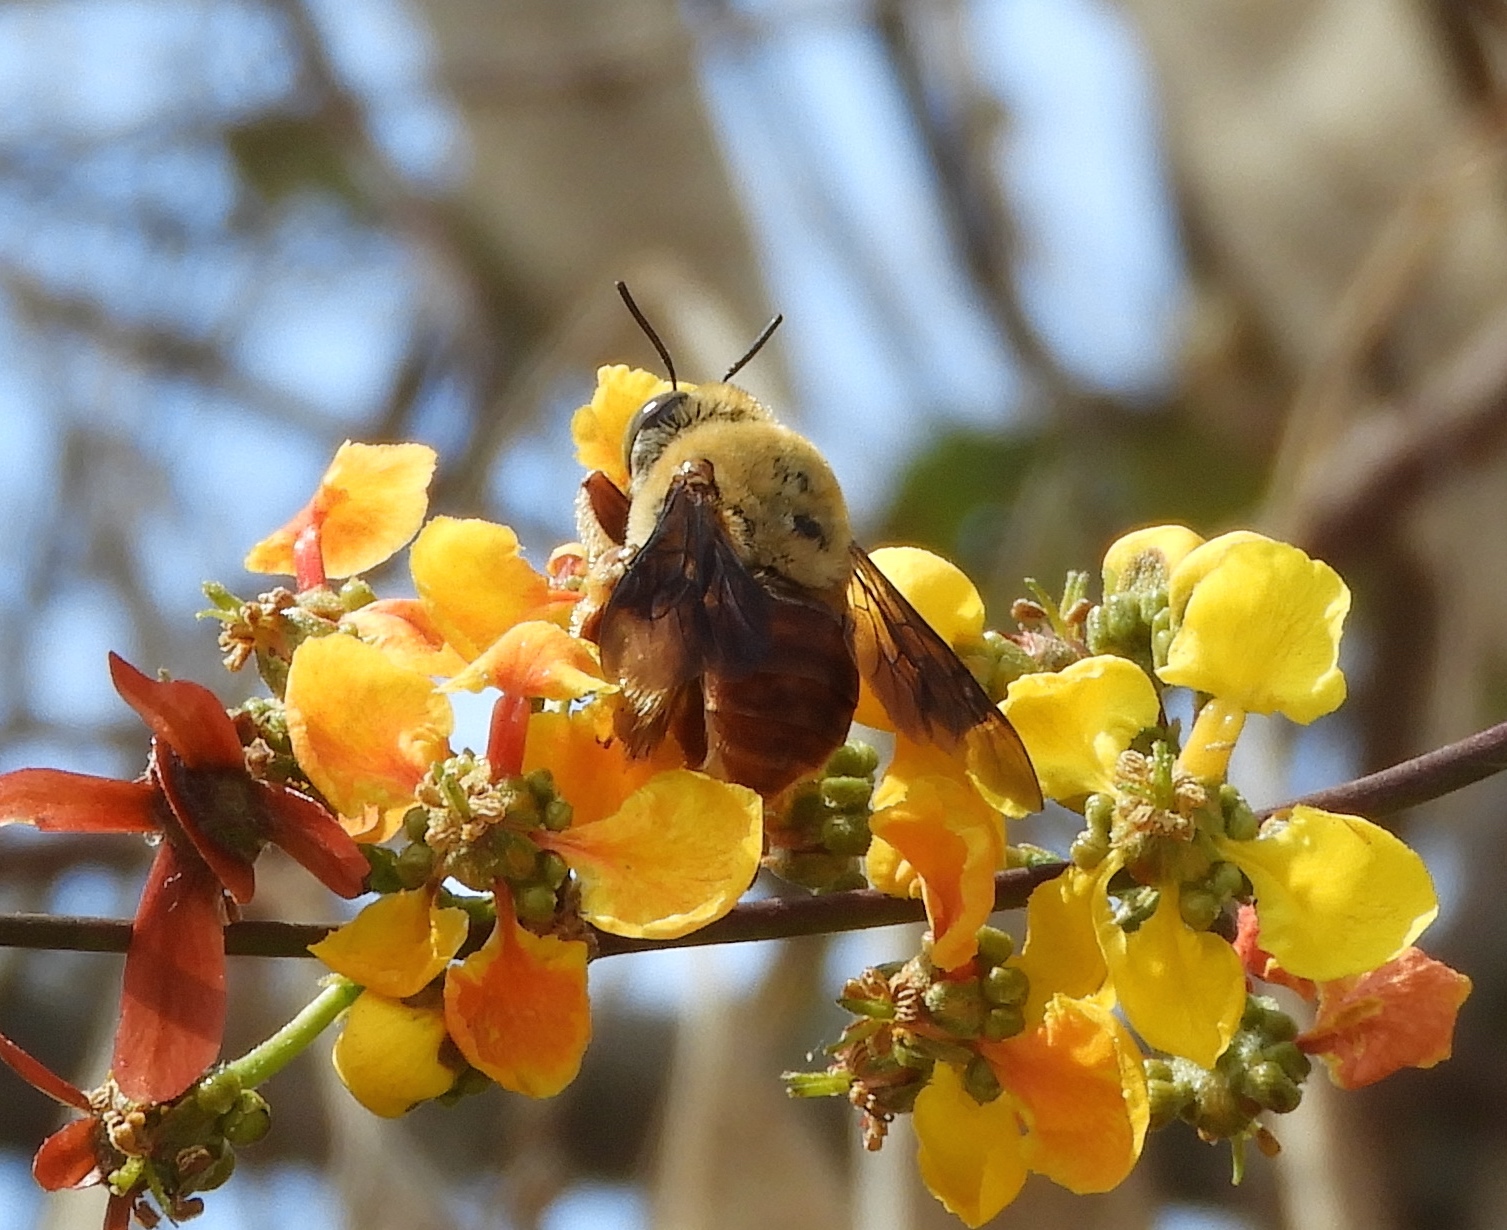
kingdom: Animalia
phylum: Arthropoda
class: Insecta
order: Hymenoptera
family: Apidae
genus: Centris
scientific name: Centris eurypatana
